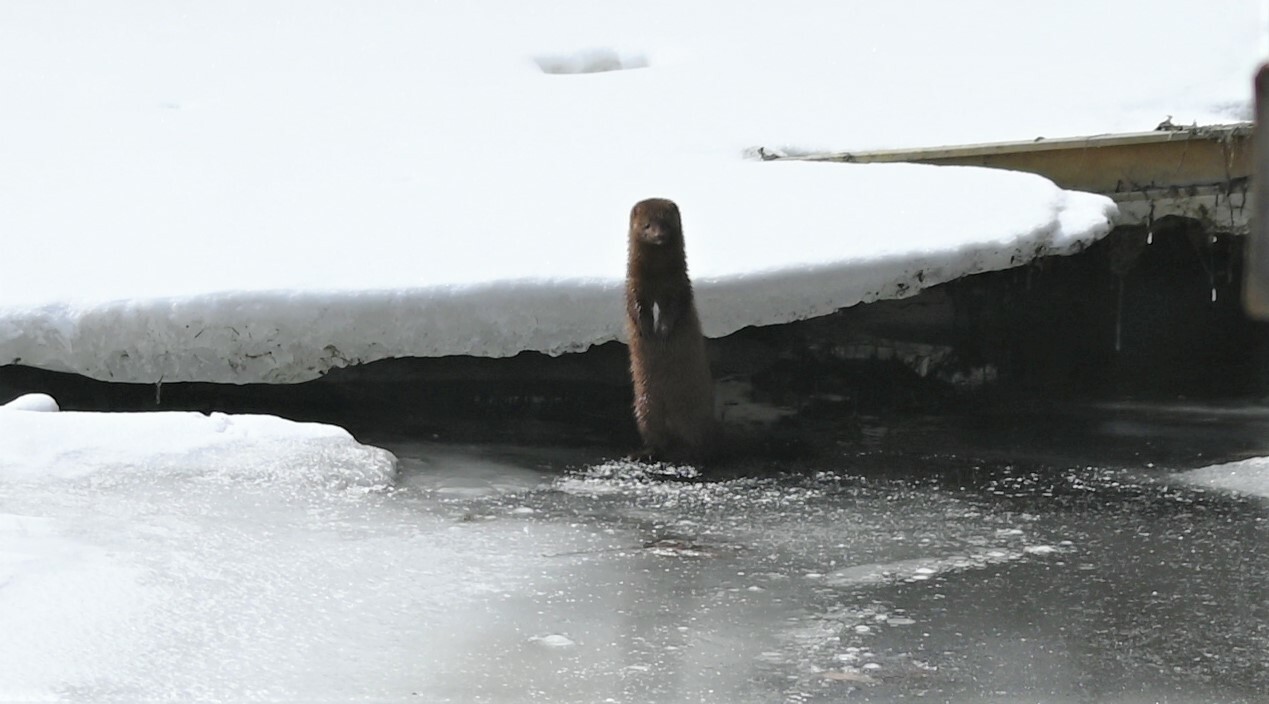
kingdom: Animalia
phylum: Chordata
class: Mammalia
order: Carnivora
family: Mustelidae
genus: Mustela
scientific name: Mustela
